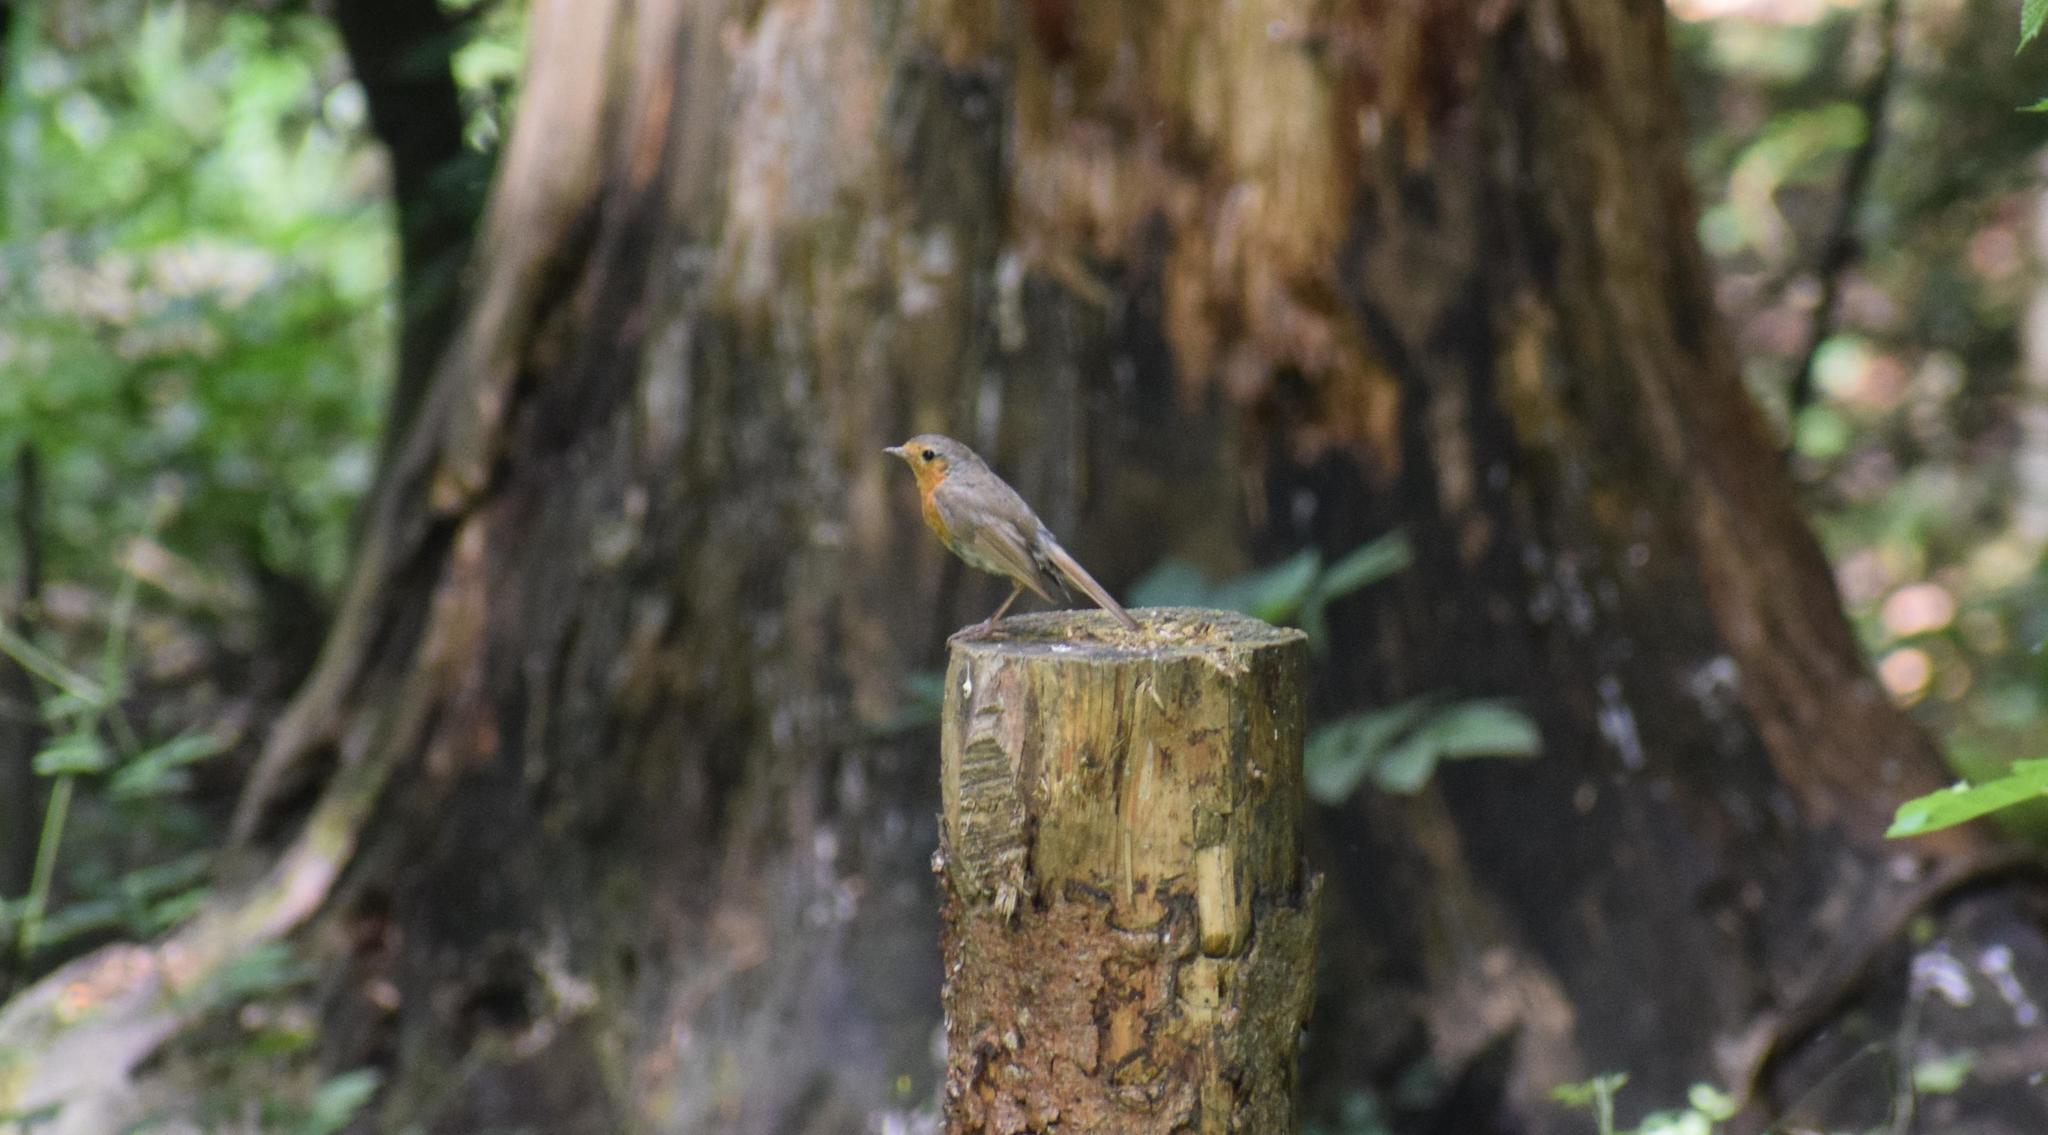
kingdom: Animalia
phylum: Chordata
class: Aves
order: Passeriformes
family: Muscicapidae
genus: Erithacus
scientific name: Erithacus rubecula
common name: European robin
